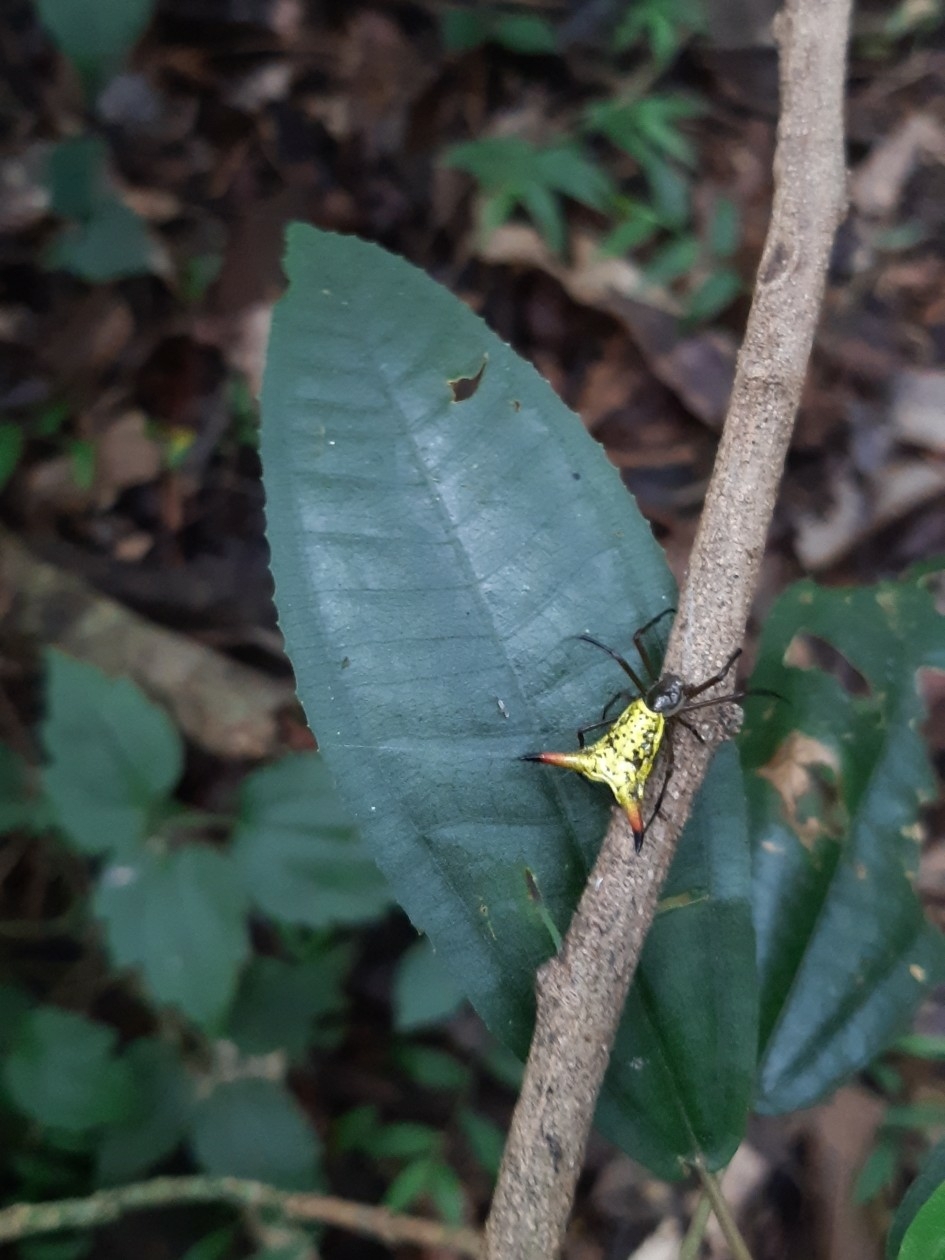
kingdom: Animalia
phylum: Arthropoda
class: Arachnida
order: Araneae
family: Araneidae
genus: Micrathena
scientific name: Micrathena crassispina
